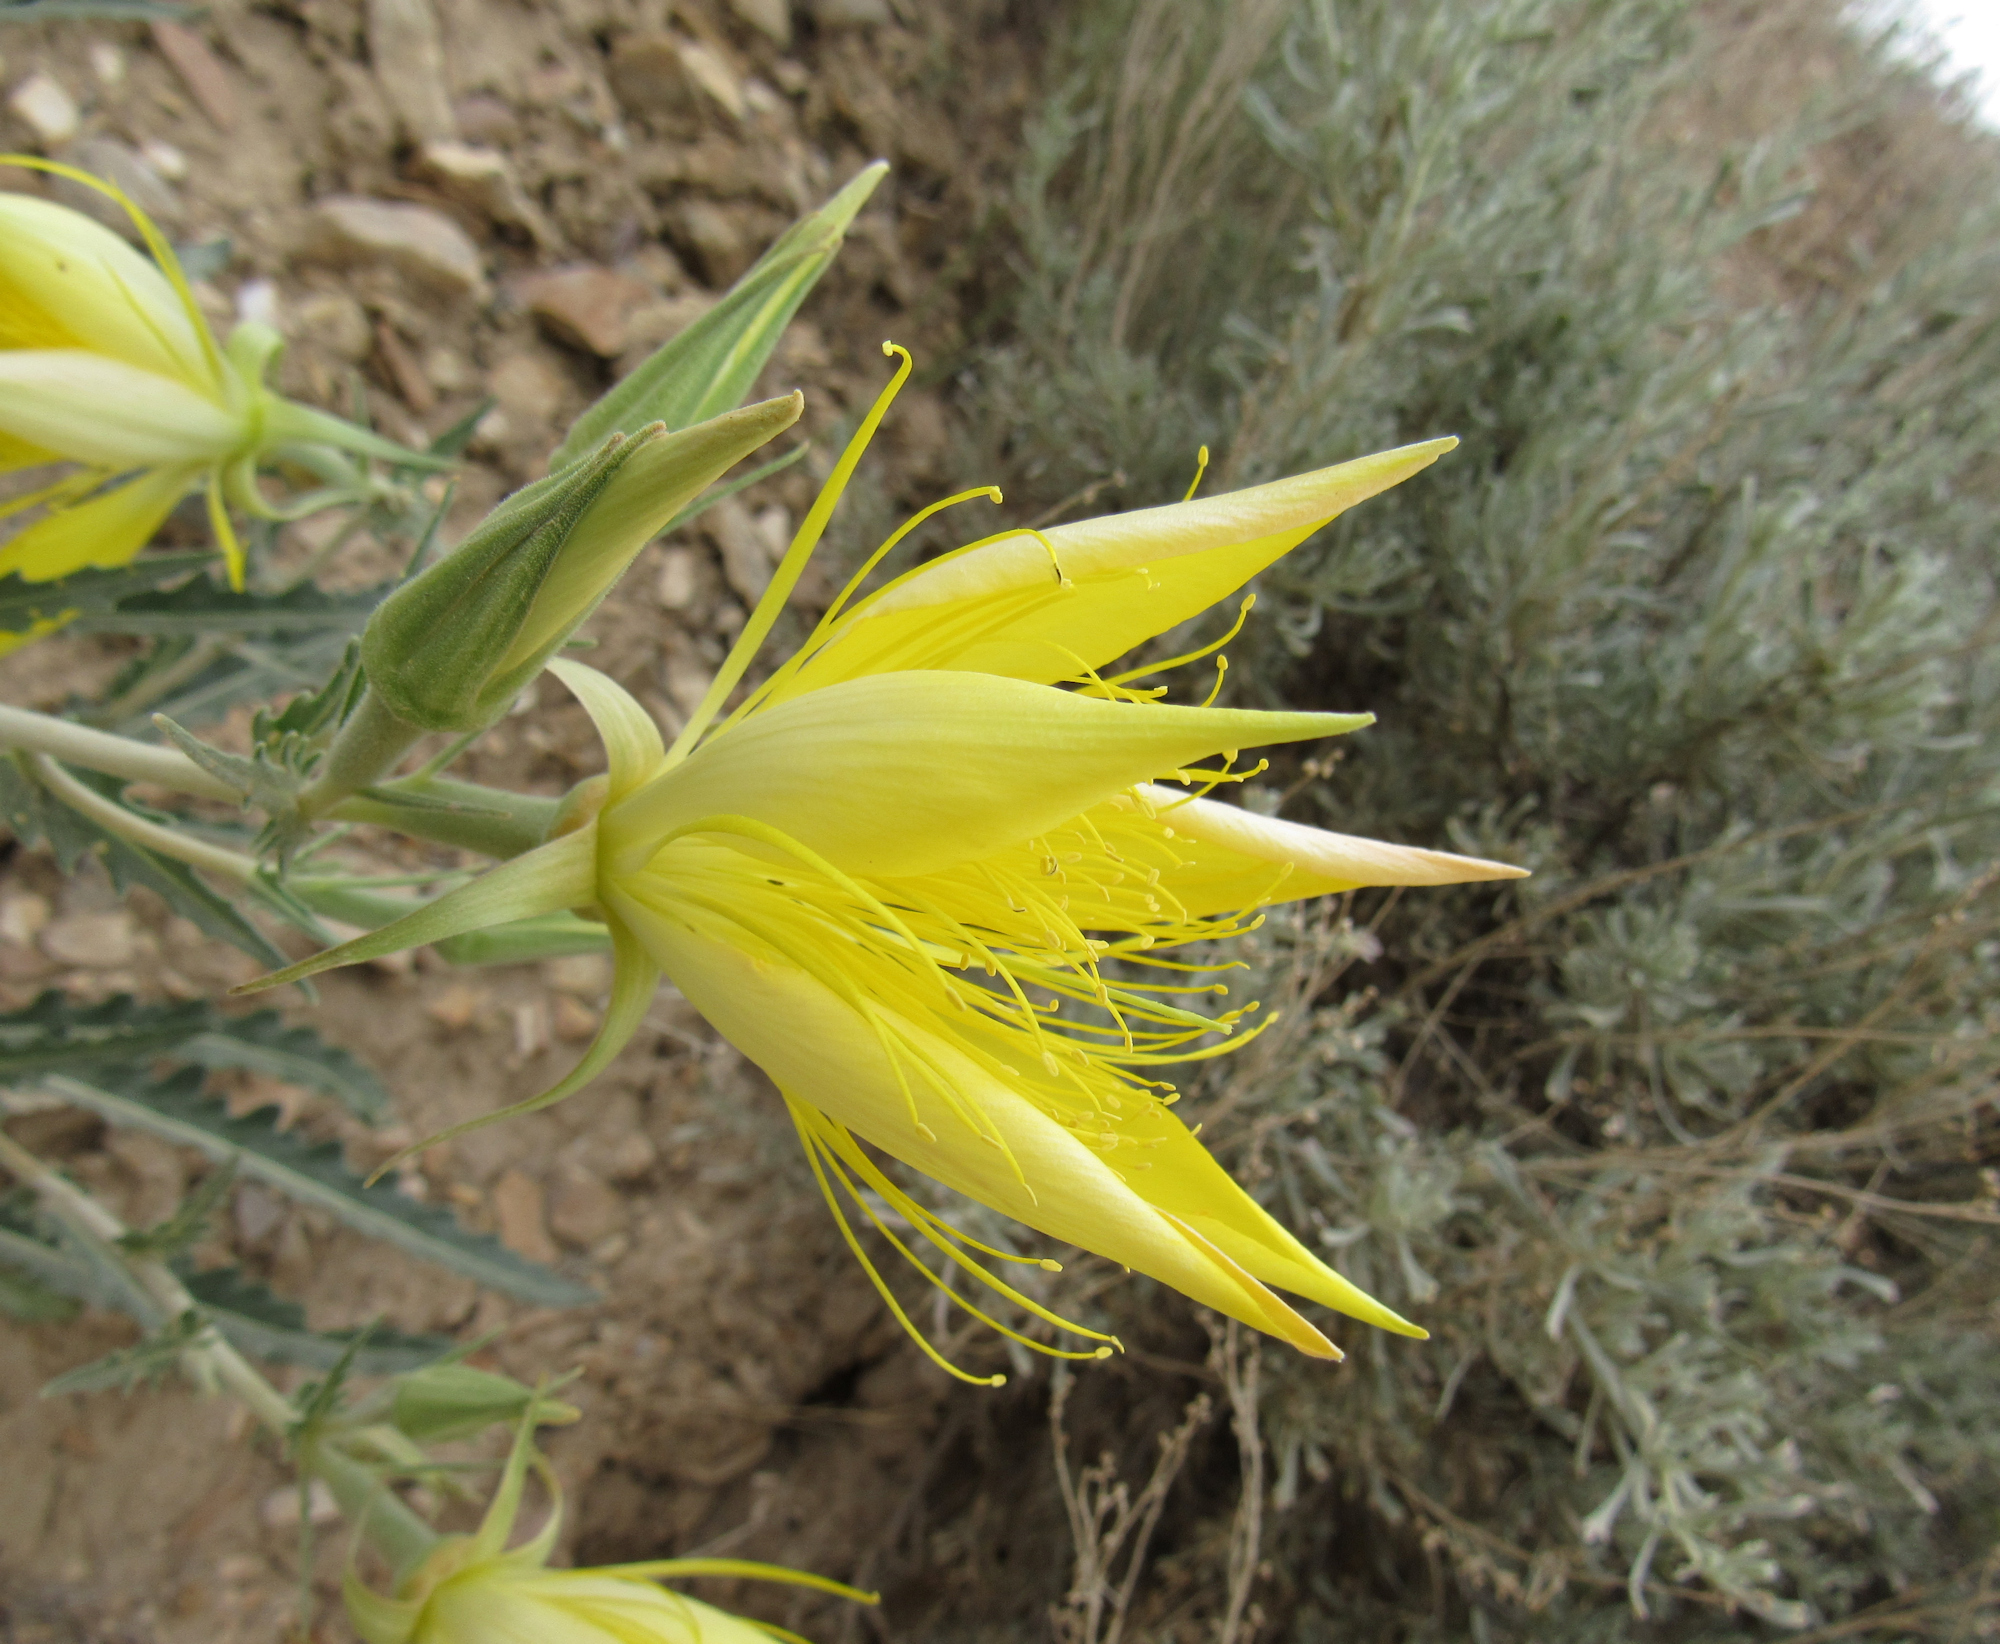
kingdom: Plantae
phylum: Tracheophyta
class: Magnoliopsida
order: Cornales
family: Loasaceae
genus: Mentzelia
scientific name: Mentzelia laevicaulis
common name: Smooth-stem blazingstar
